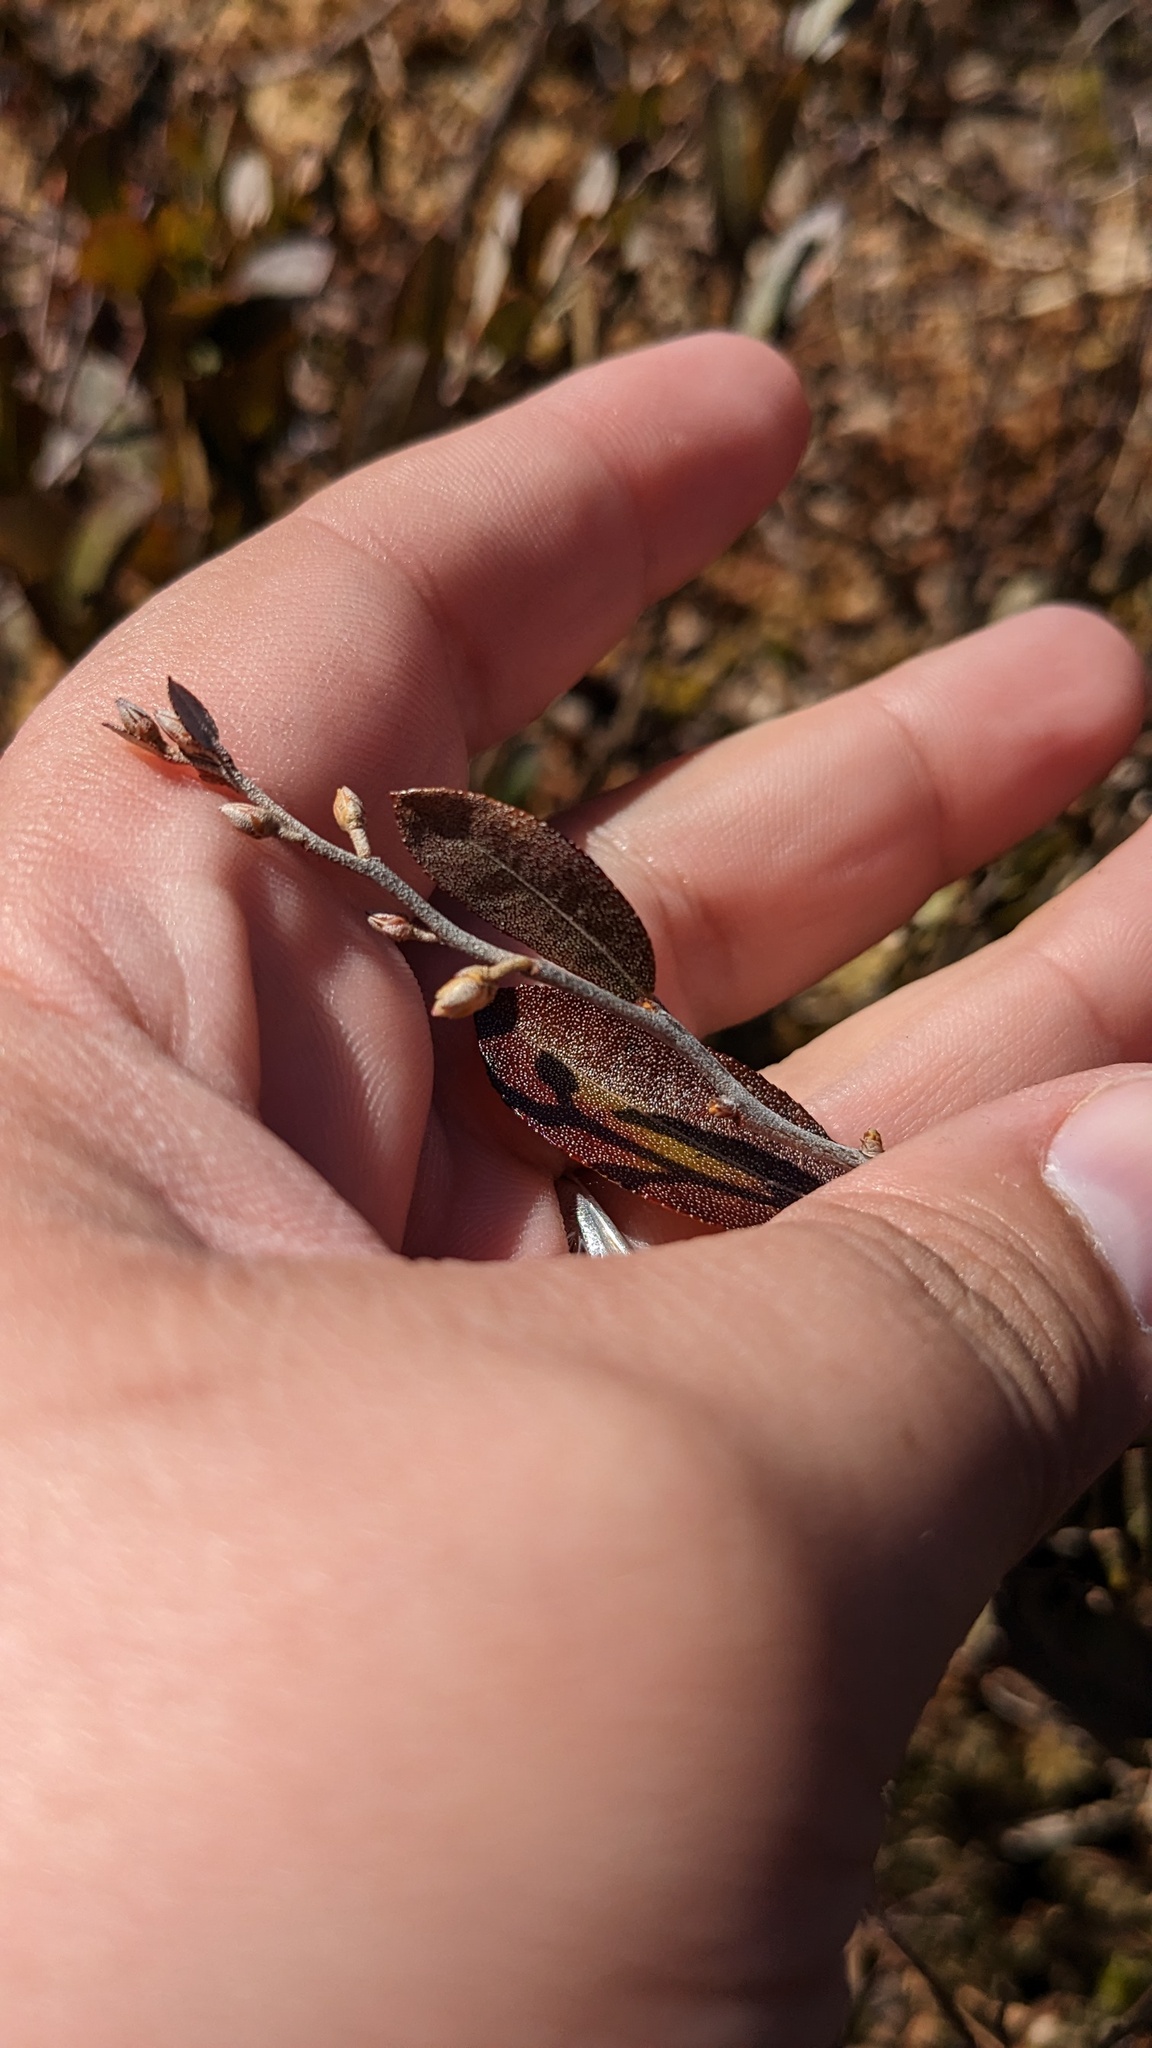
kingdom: Plantae
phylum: Tracheophyta
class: Magnoliopsida
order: Ericales
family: Ericaceae
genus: Chamaedaphne
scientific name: Chamaedaphne calyculata
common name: Leatherleaf
